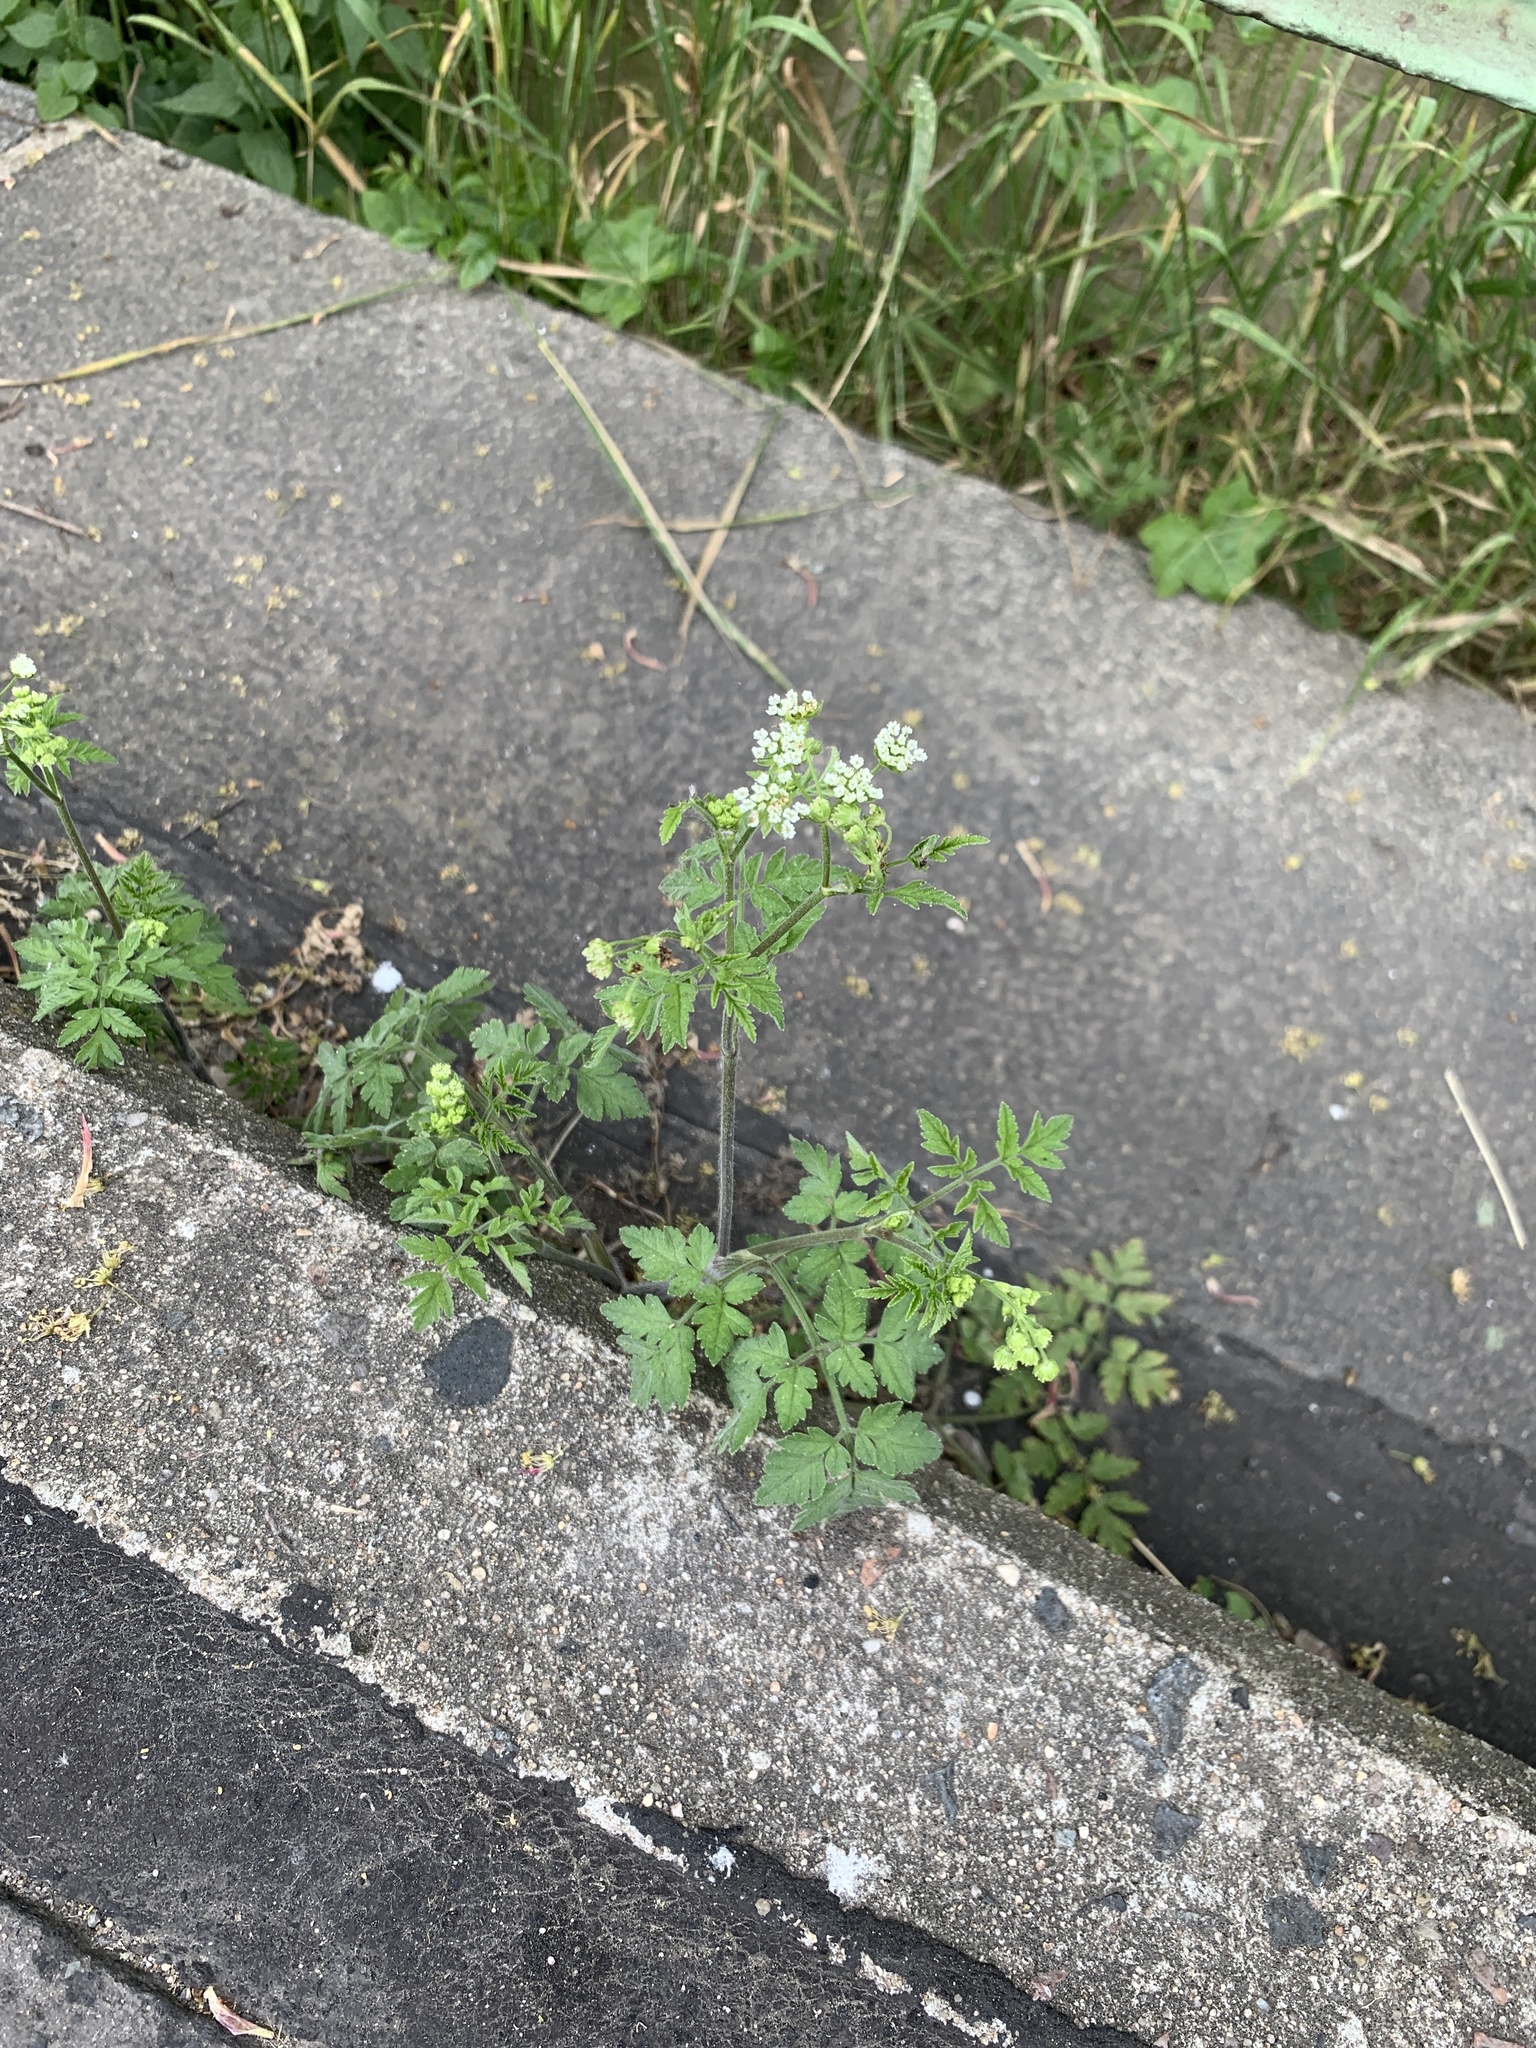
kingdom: Plantae
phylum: Tracheophyta
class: Magnoliopsida
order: Apiales
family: Apiaceae
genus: Chaerophyllum
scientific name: Chaerophyllum temulum
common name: Rough chervil
